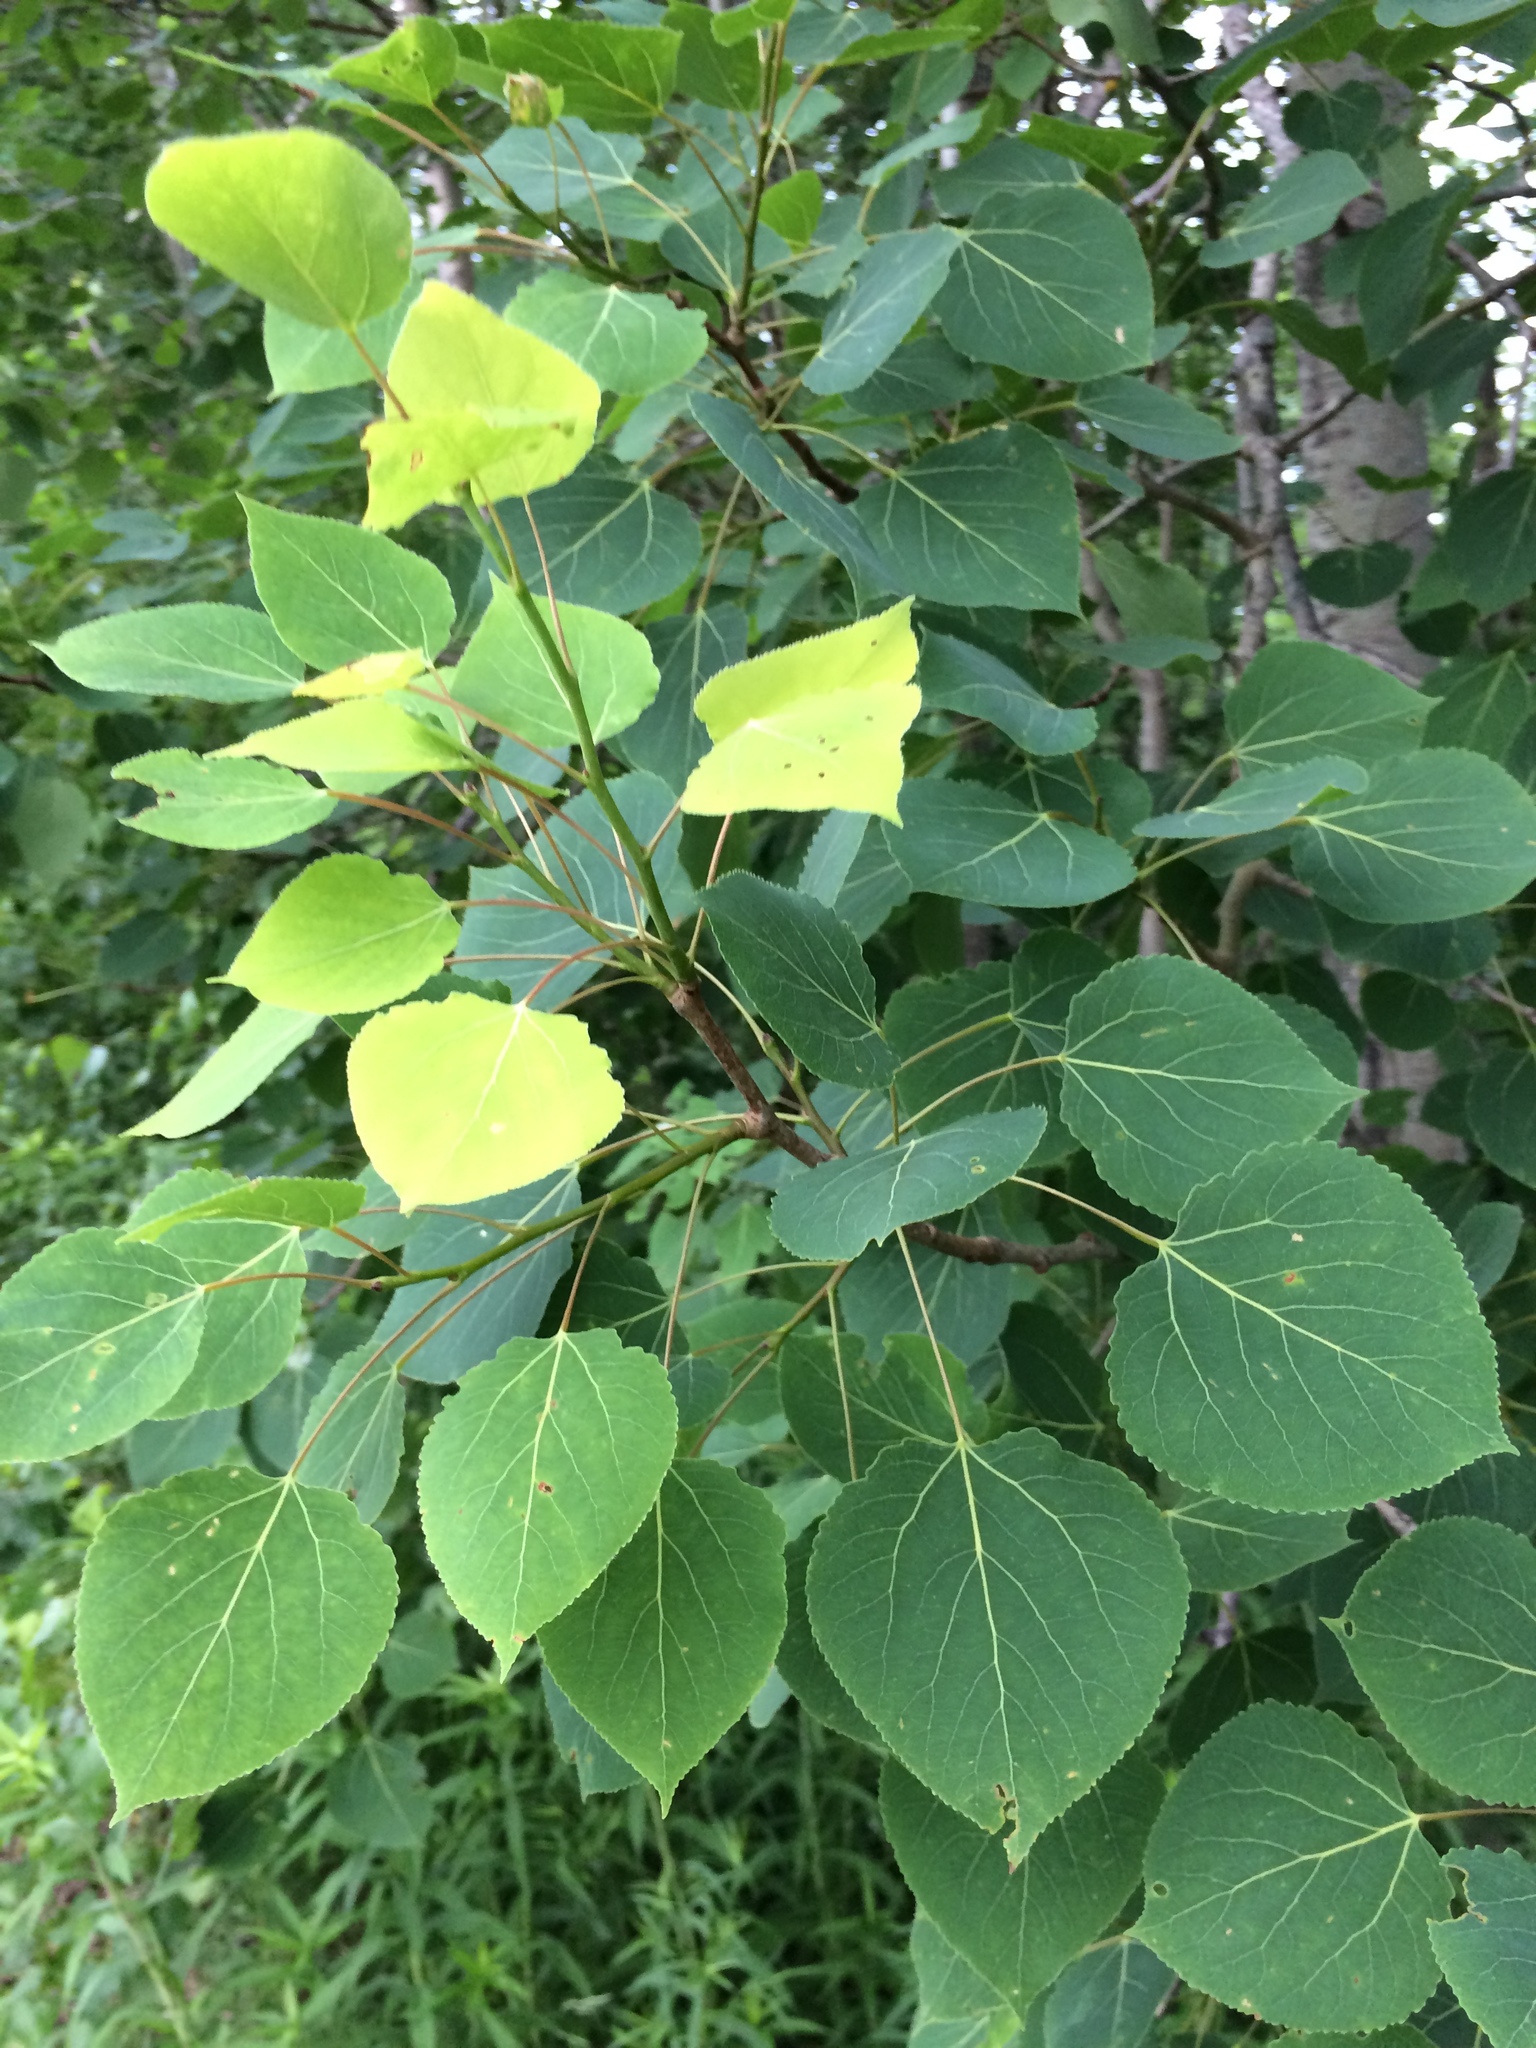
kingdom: Plantae
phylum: Tracheophyta
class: Magnoliopsida
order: Malpighiales
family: Salicaceae
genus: Populus
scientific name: Populus tremuloides
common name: Quaking aspen
